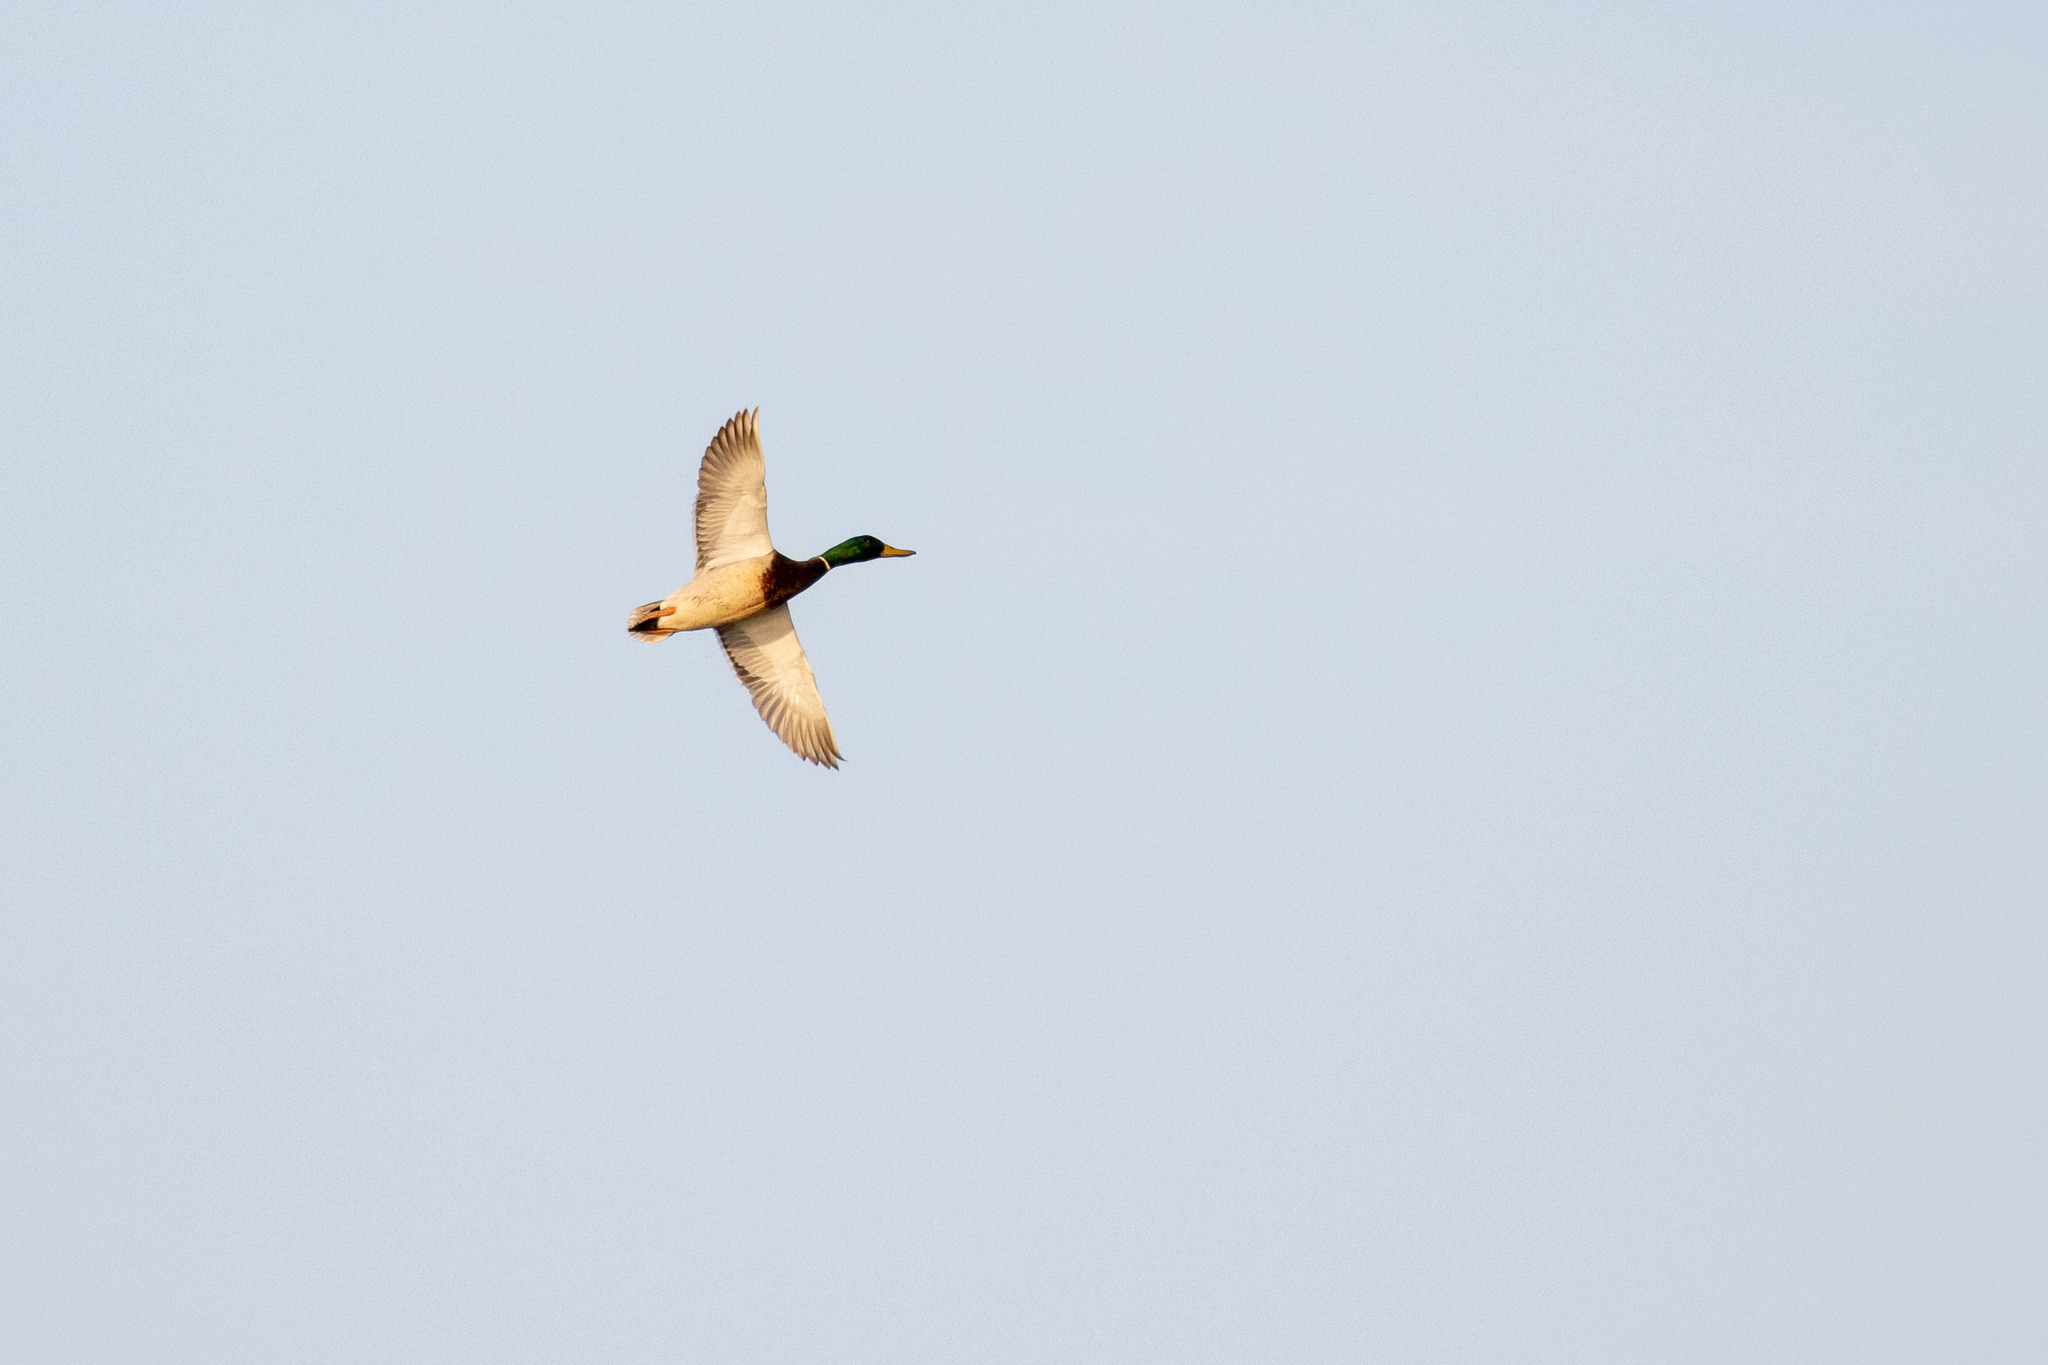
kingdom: Animalia
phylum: Chordata
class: Aves
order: Anseriformes
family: Anatidae
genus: Anas
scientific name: Anas platyrhynchos
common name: Mallard
